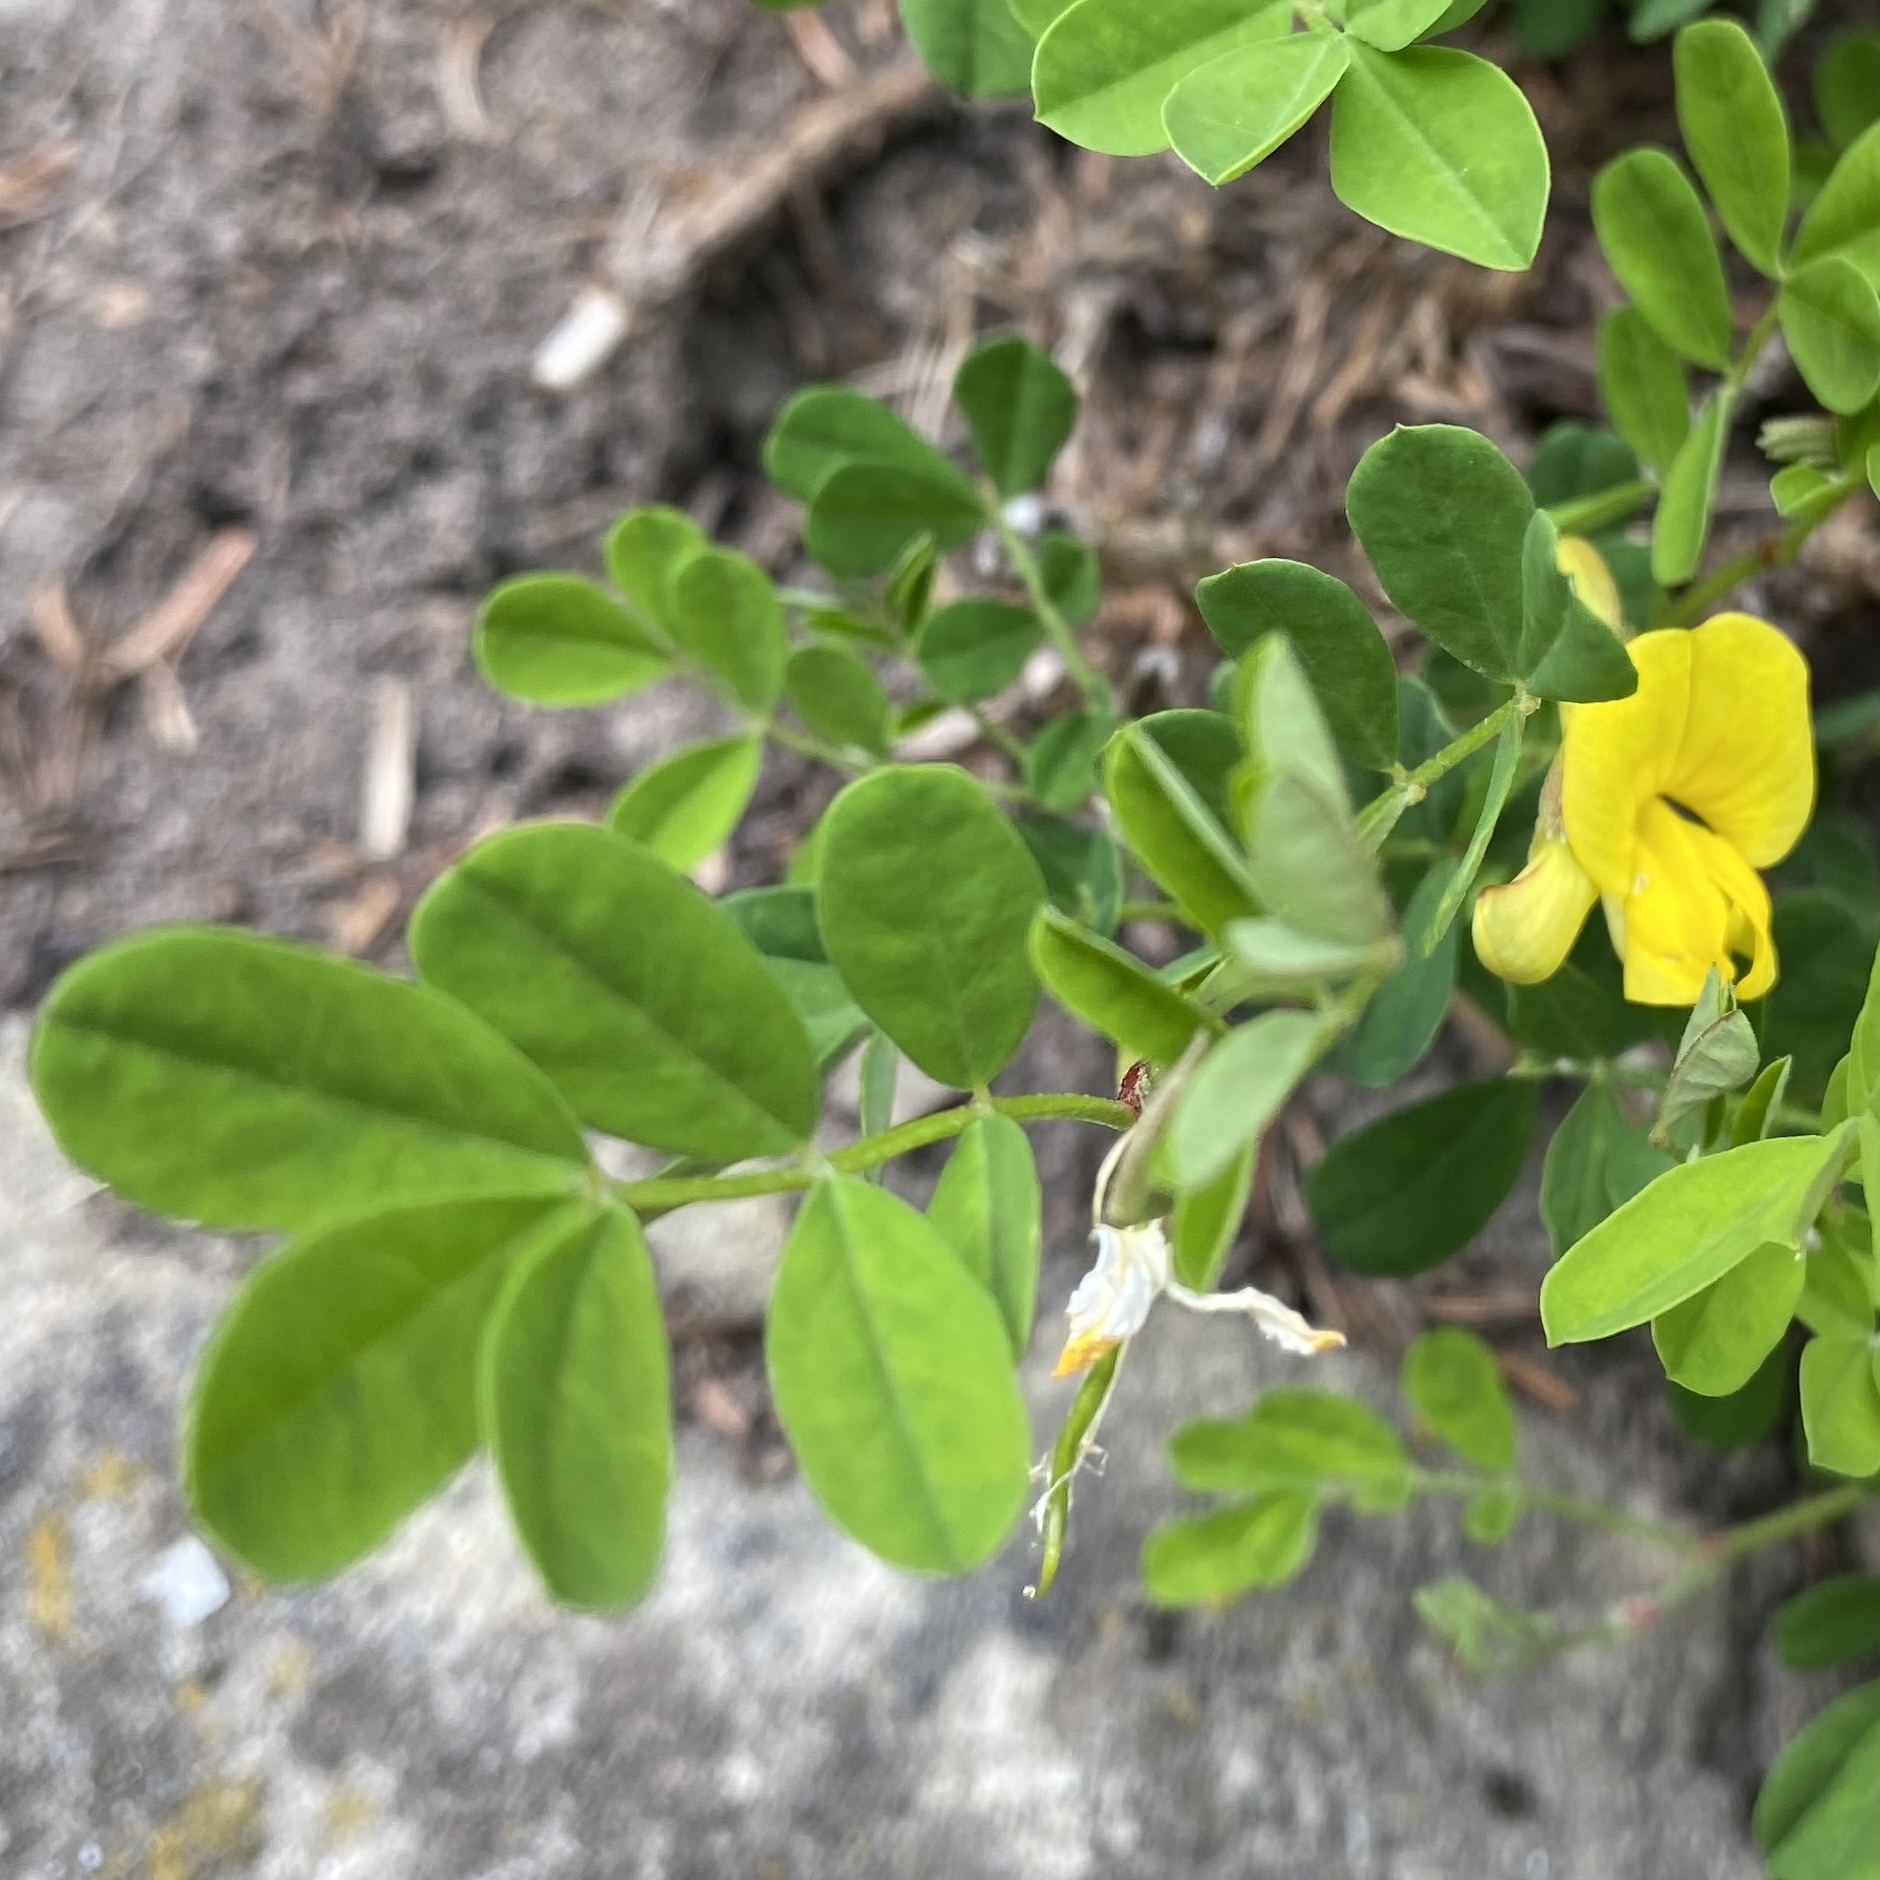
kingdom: Plantae
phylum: Tracheophyta
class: Magnoliopsida
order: Fabales
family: Fabaceae
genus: Hippocrepis
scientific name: Hippocrepis emerus
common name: Scorpion senna
